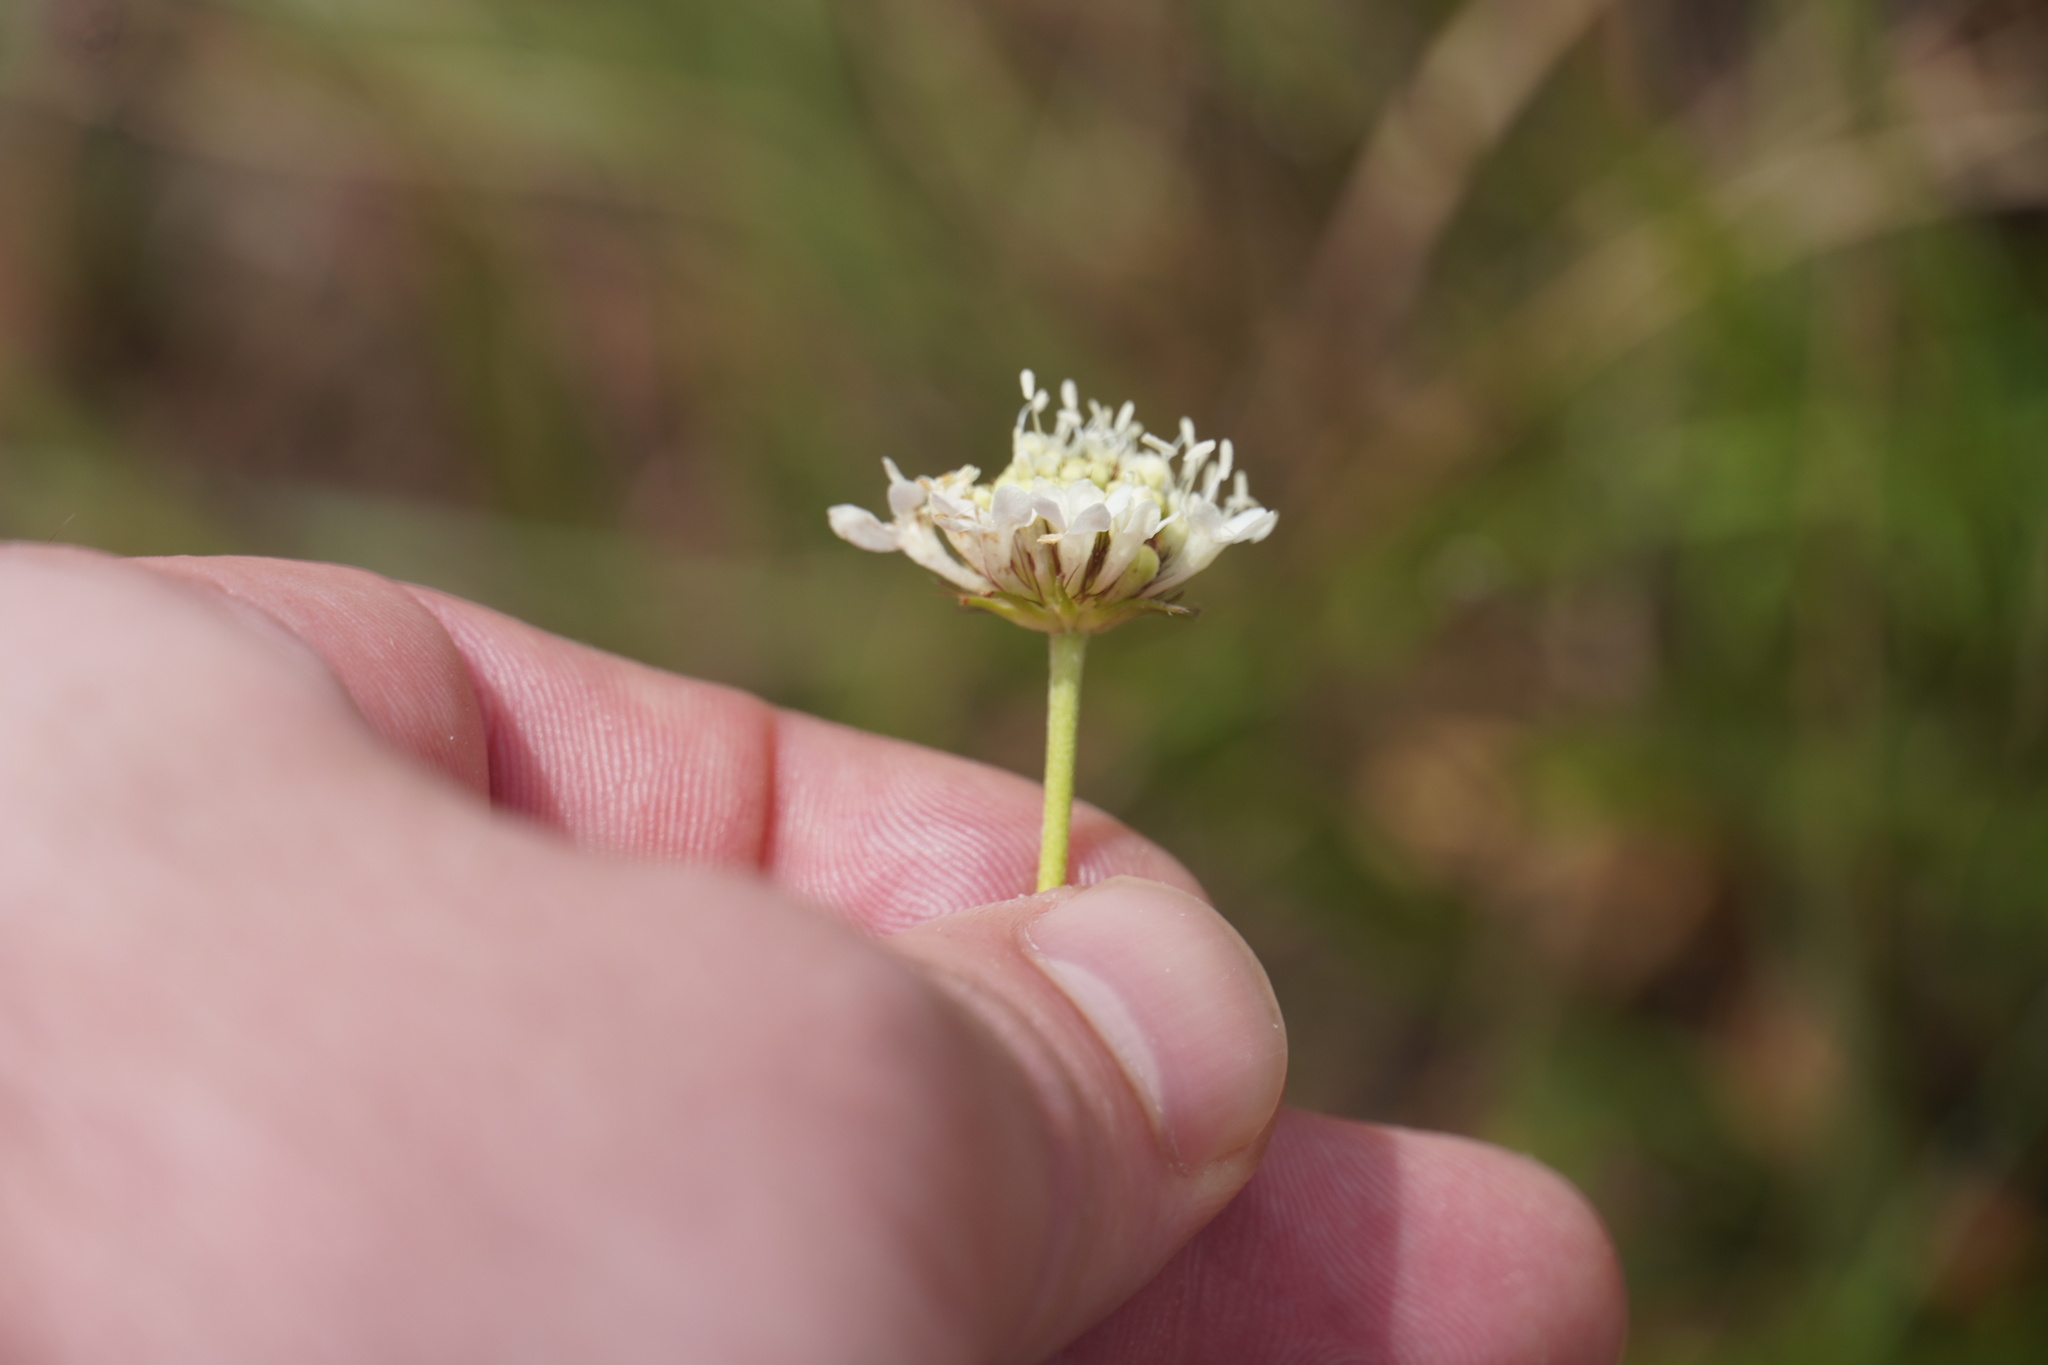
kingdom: Plantae
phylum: Tracheophyta
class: Magnoliopsida
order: Dipsacales
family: Caprifoliaceae
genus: Scabiosa
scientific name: Scabiosa columbaria
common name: Small scabious
